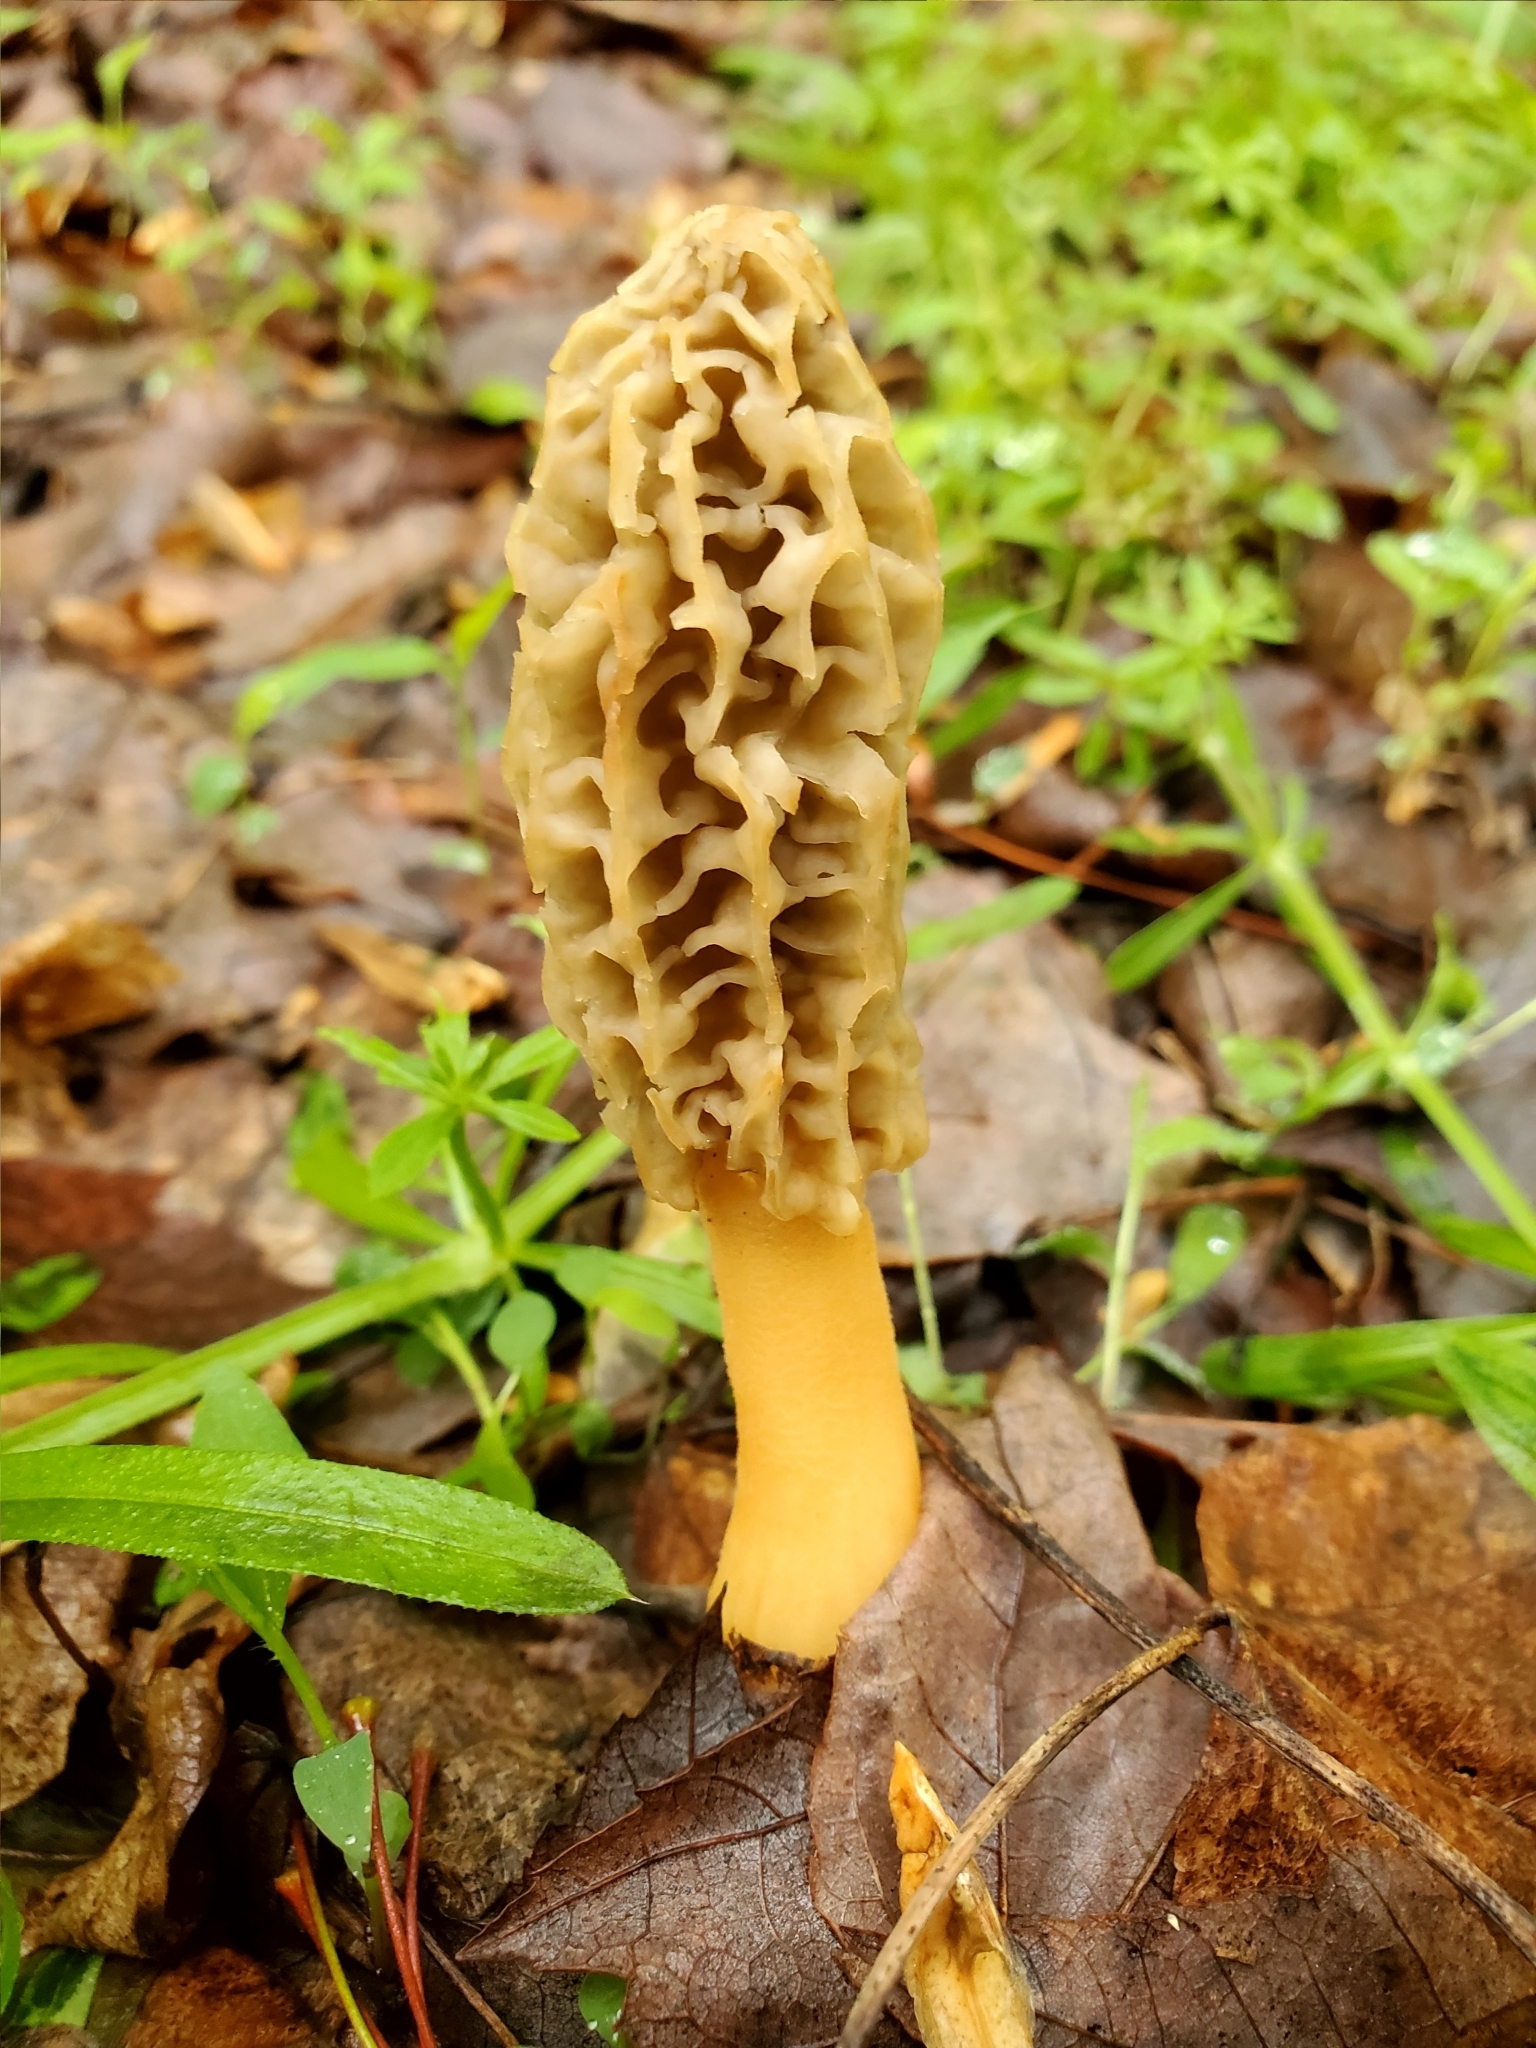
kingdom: Fungi
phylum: Ascomycota
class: Pezizomycetes
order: Pezizales
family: Morchellaceae
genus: Morchella
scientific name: Morchella americana
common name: White morel
